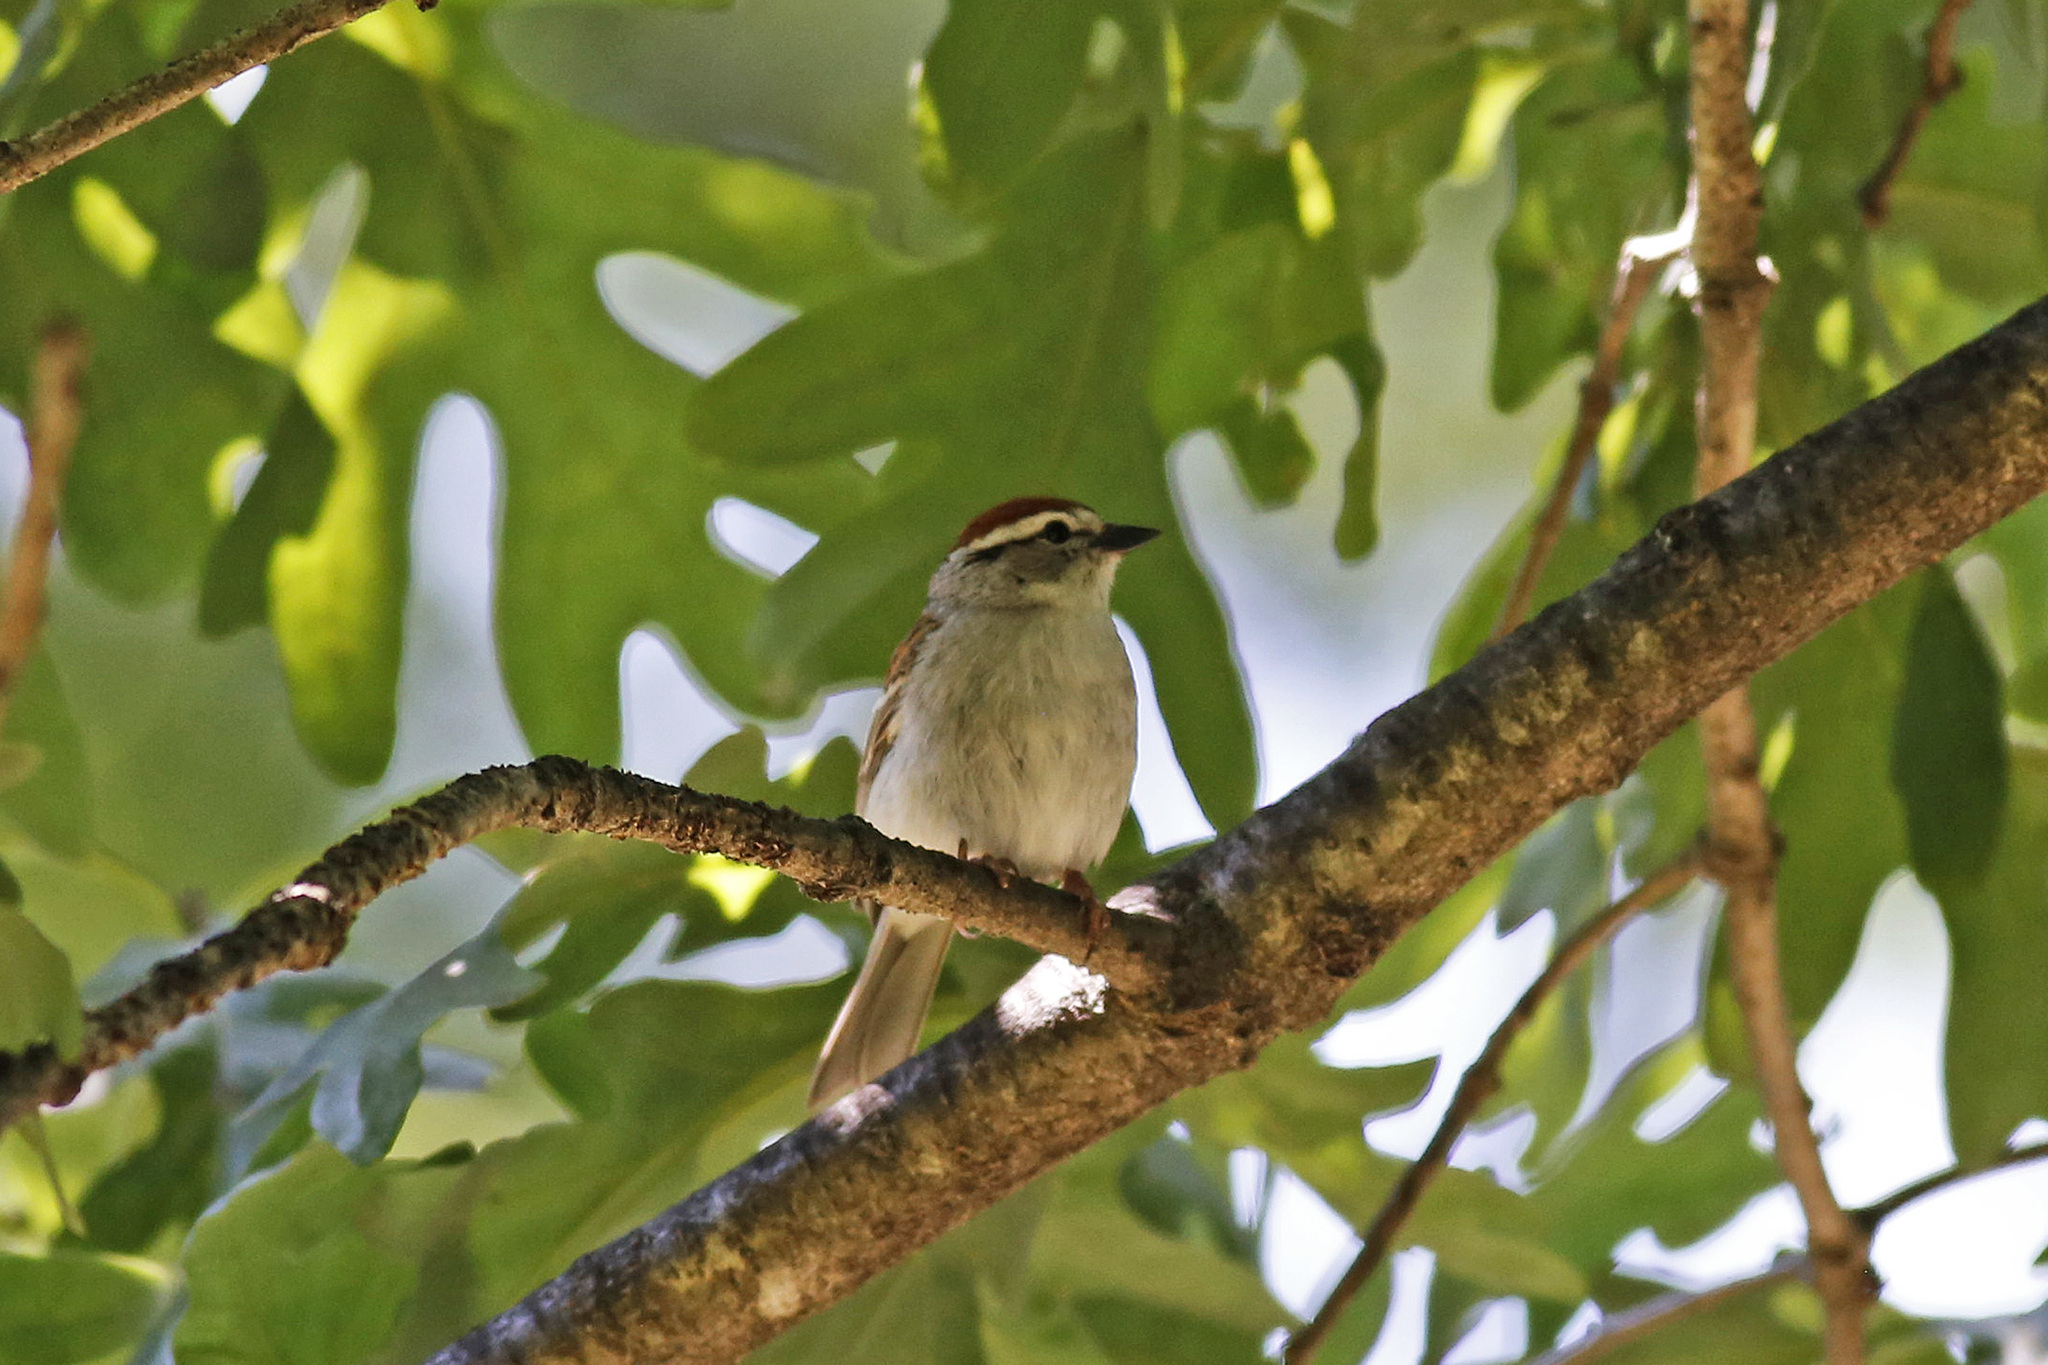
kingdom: Animalia
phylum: Chordata
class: Aves
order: Passeriformes
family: Passerellidae
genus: Spizella
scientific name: Spizella passerina
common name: Chipping sparrow
